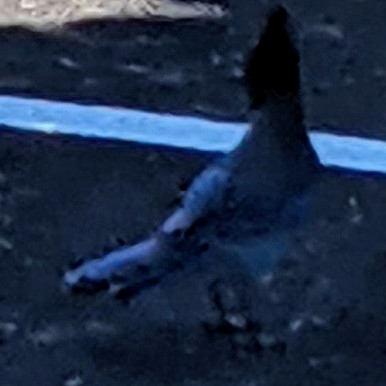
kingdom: Animalia
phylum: Chordata
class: Aves
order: Passeriformes
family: Corvidae
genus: Cyanocitta
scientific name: Cyanocitta stelleri
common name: Steller's jay
